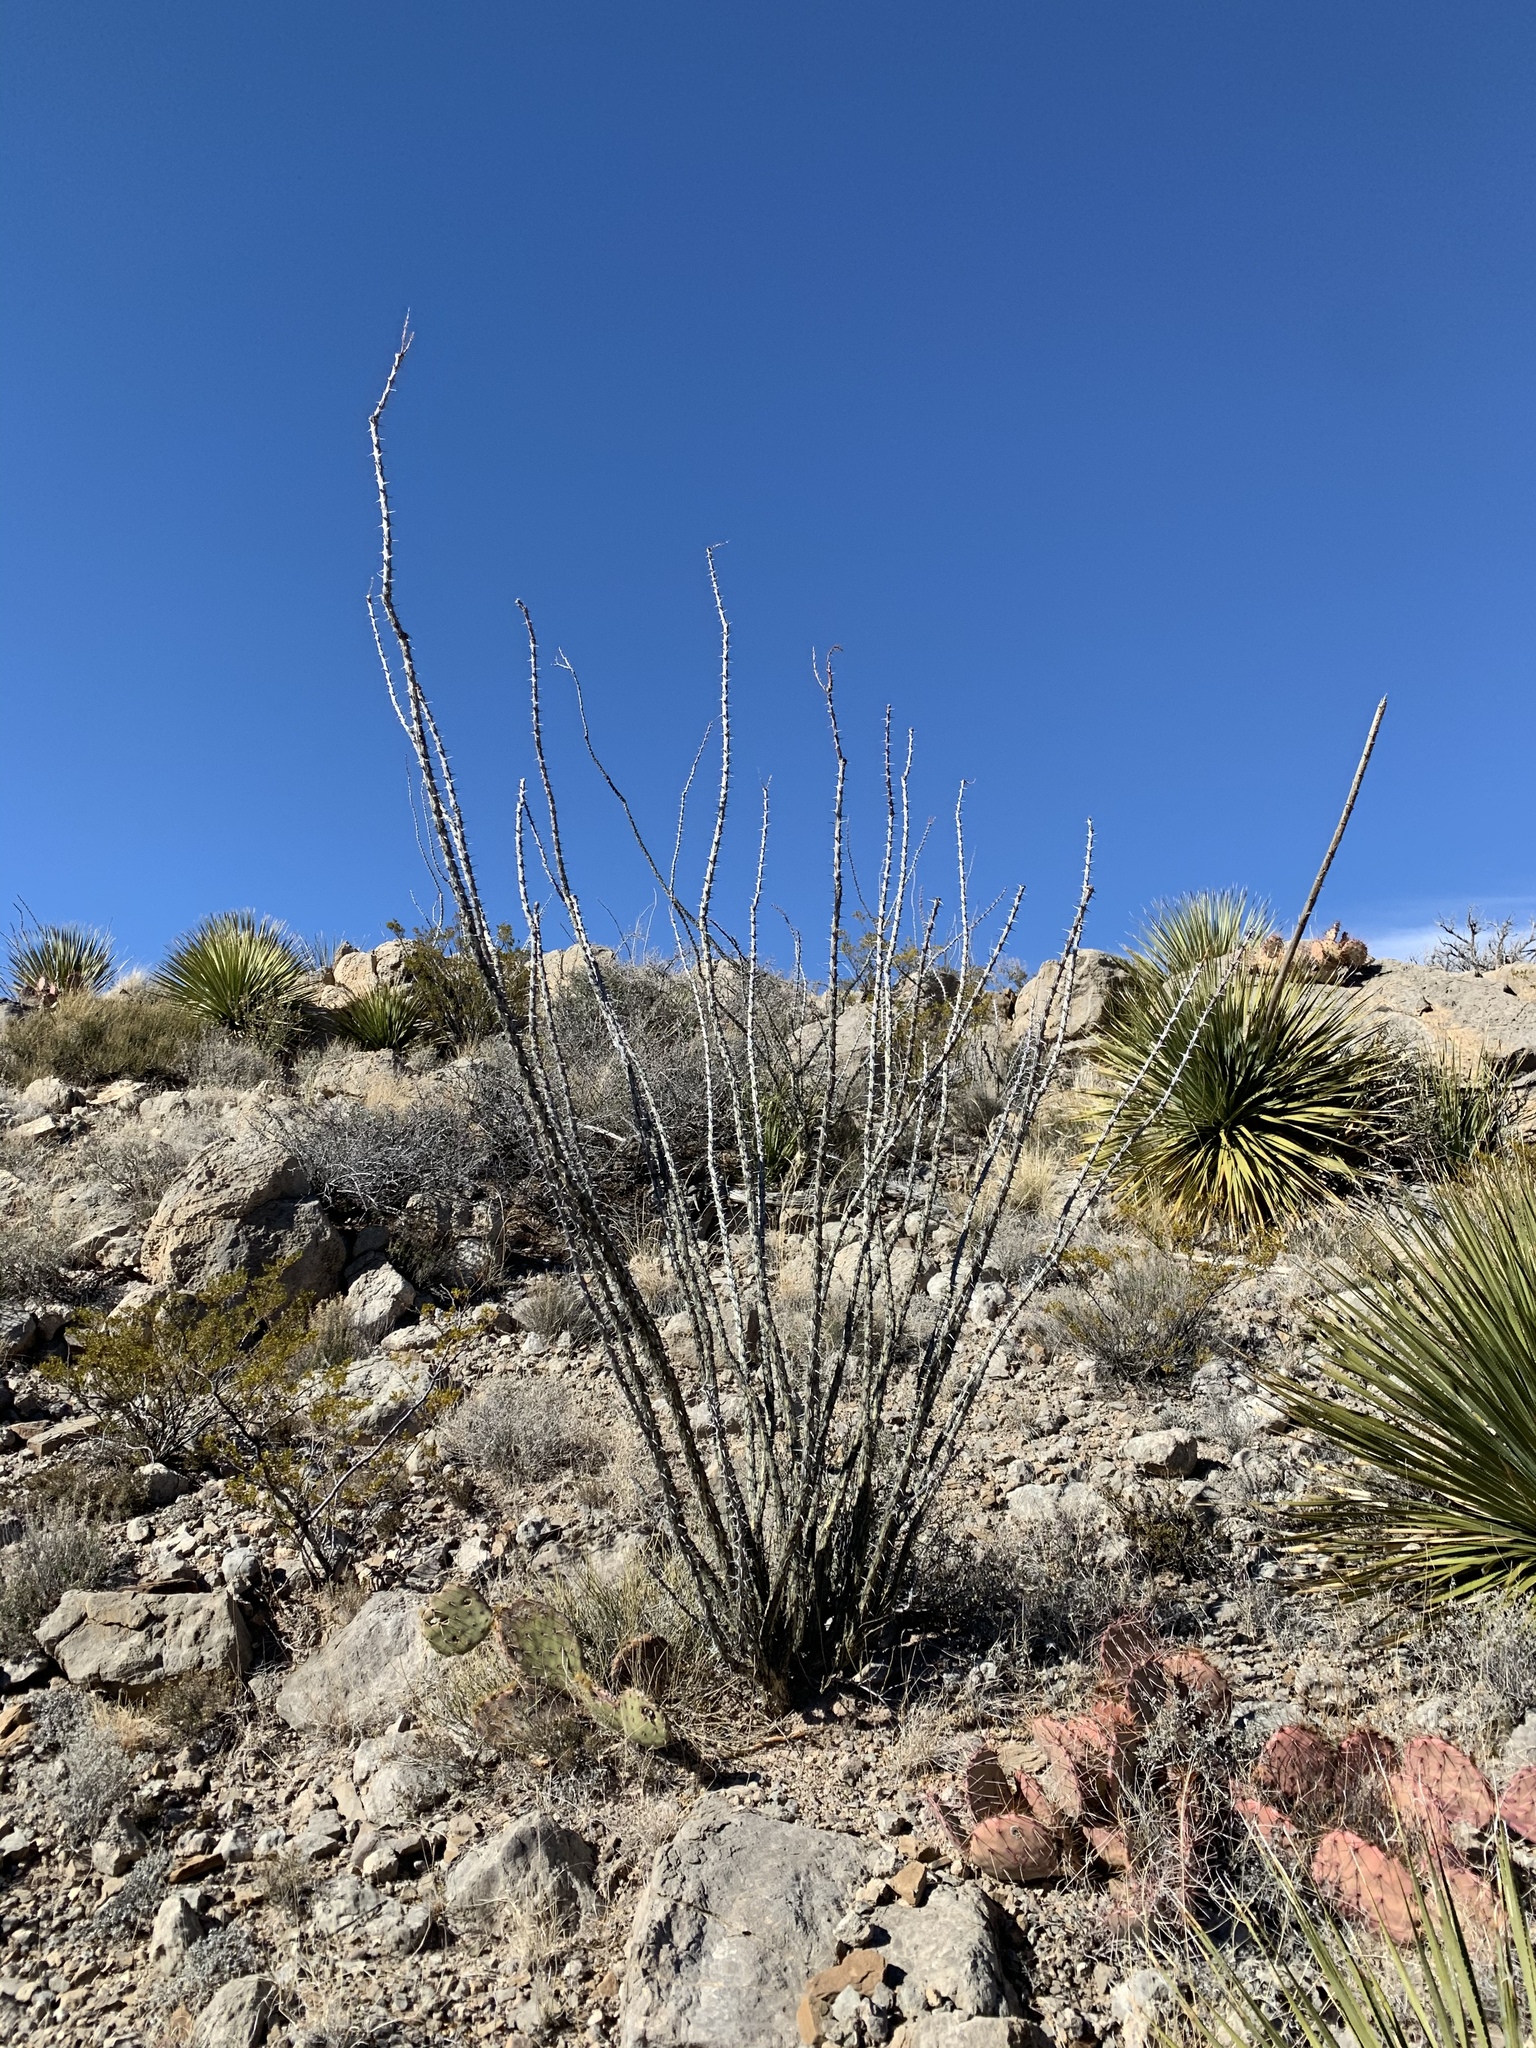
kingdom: Plantae
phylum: Tracheophyta
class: Magnoliopsida
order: Ericales
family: Fouquieriaceae
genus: Fouquieria
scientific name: Fouquieria splendens
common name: Vine-cactus
